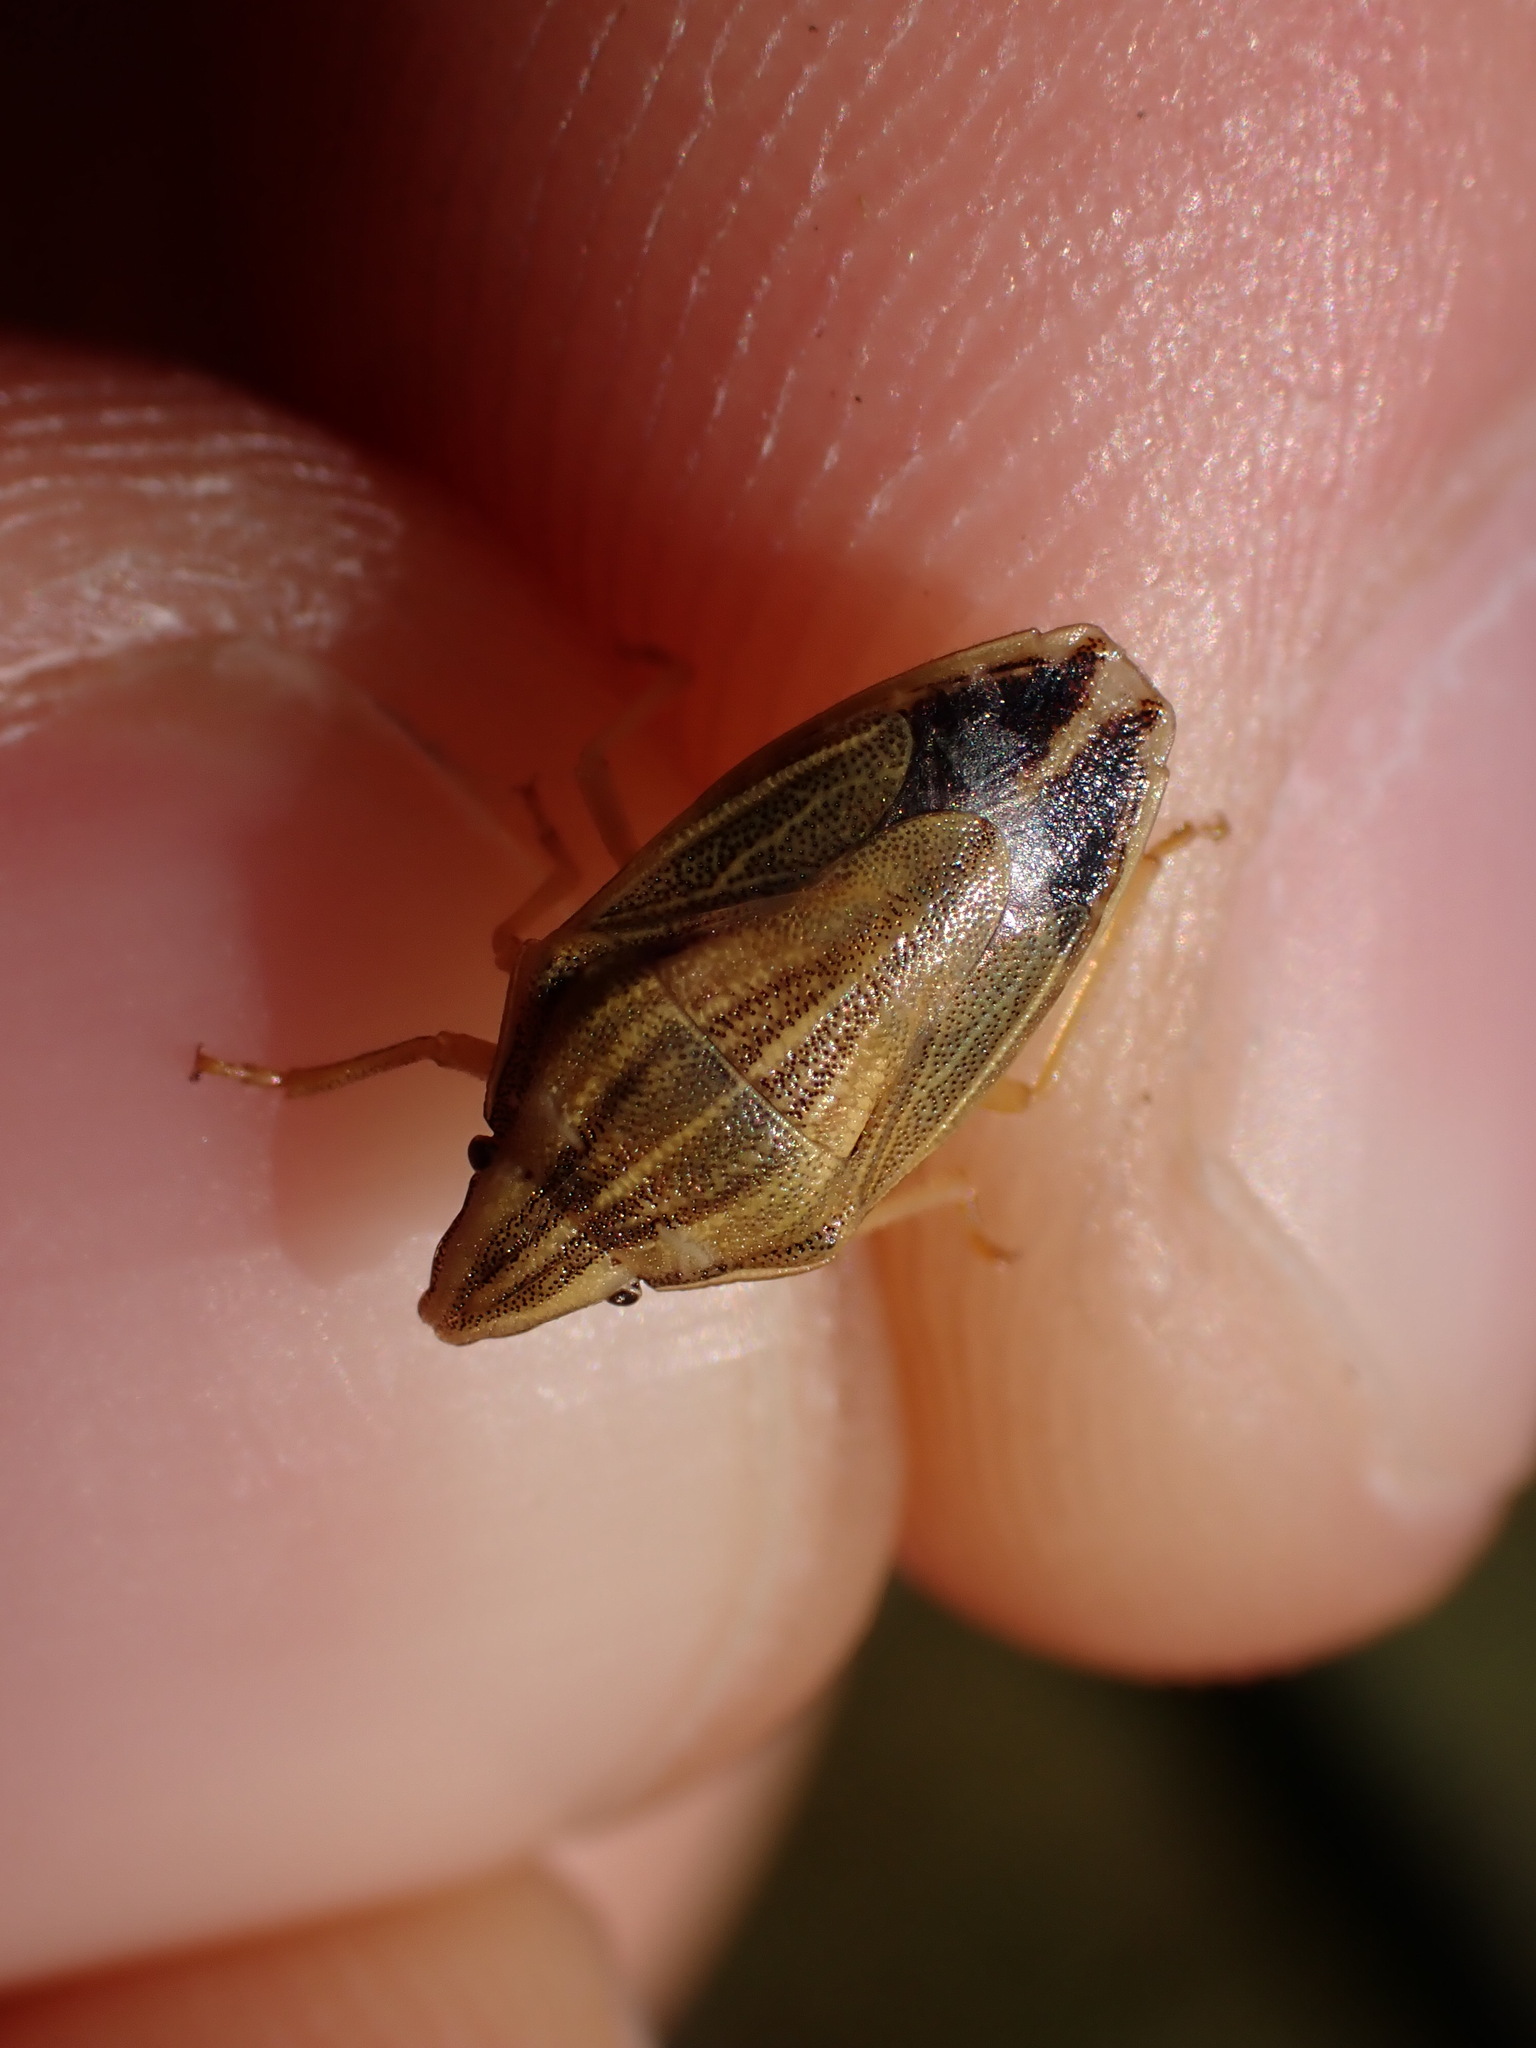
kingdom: Animalia
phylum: Arthropoda
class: Insecta
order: Hemiptera
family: Pentatomidae
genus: Aelia
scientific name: Aelia acuminata
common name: Bishop's mitre
